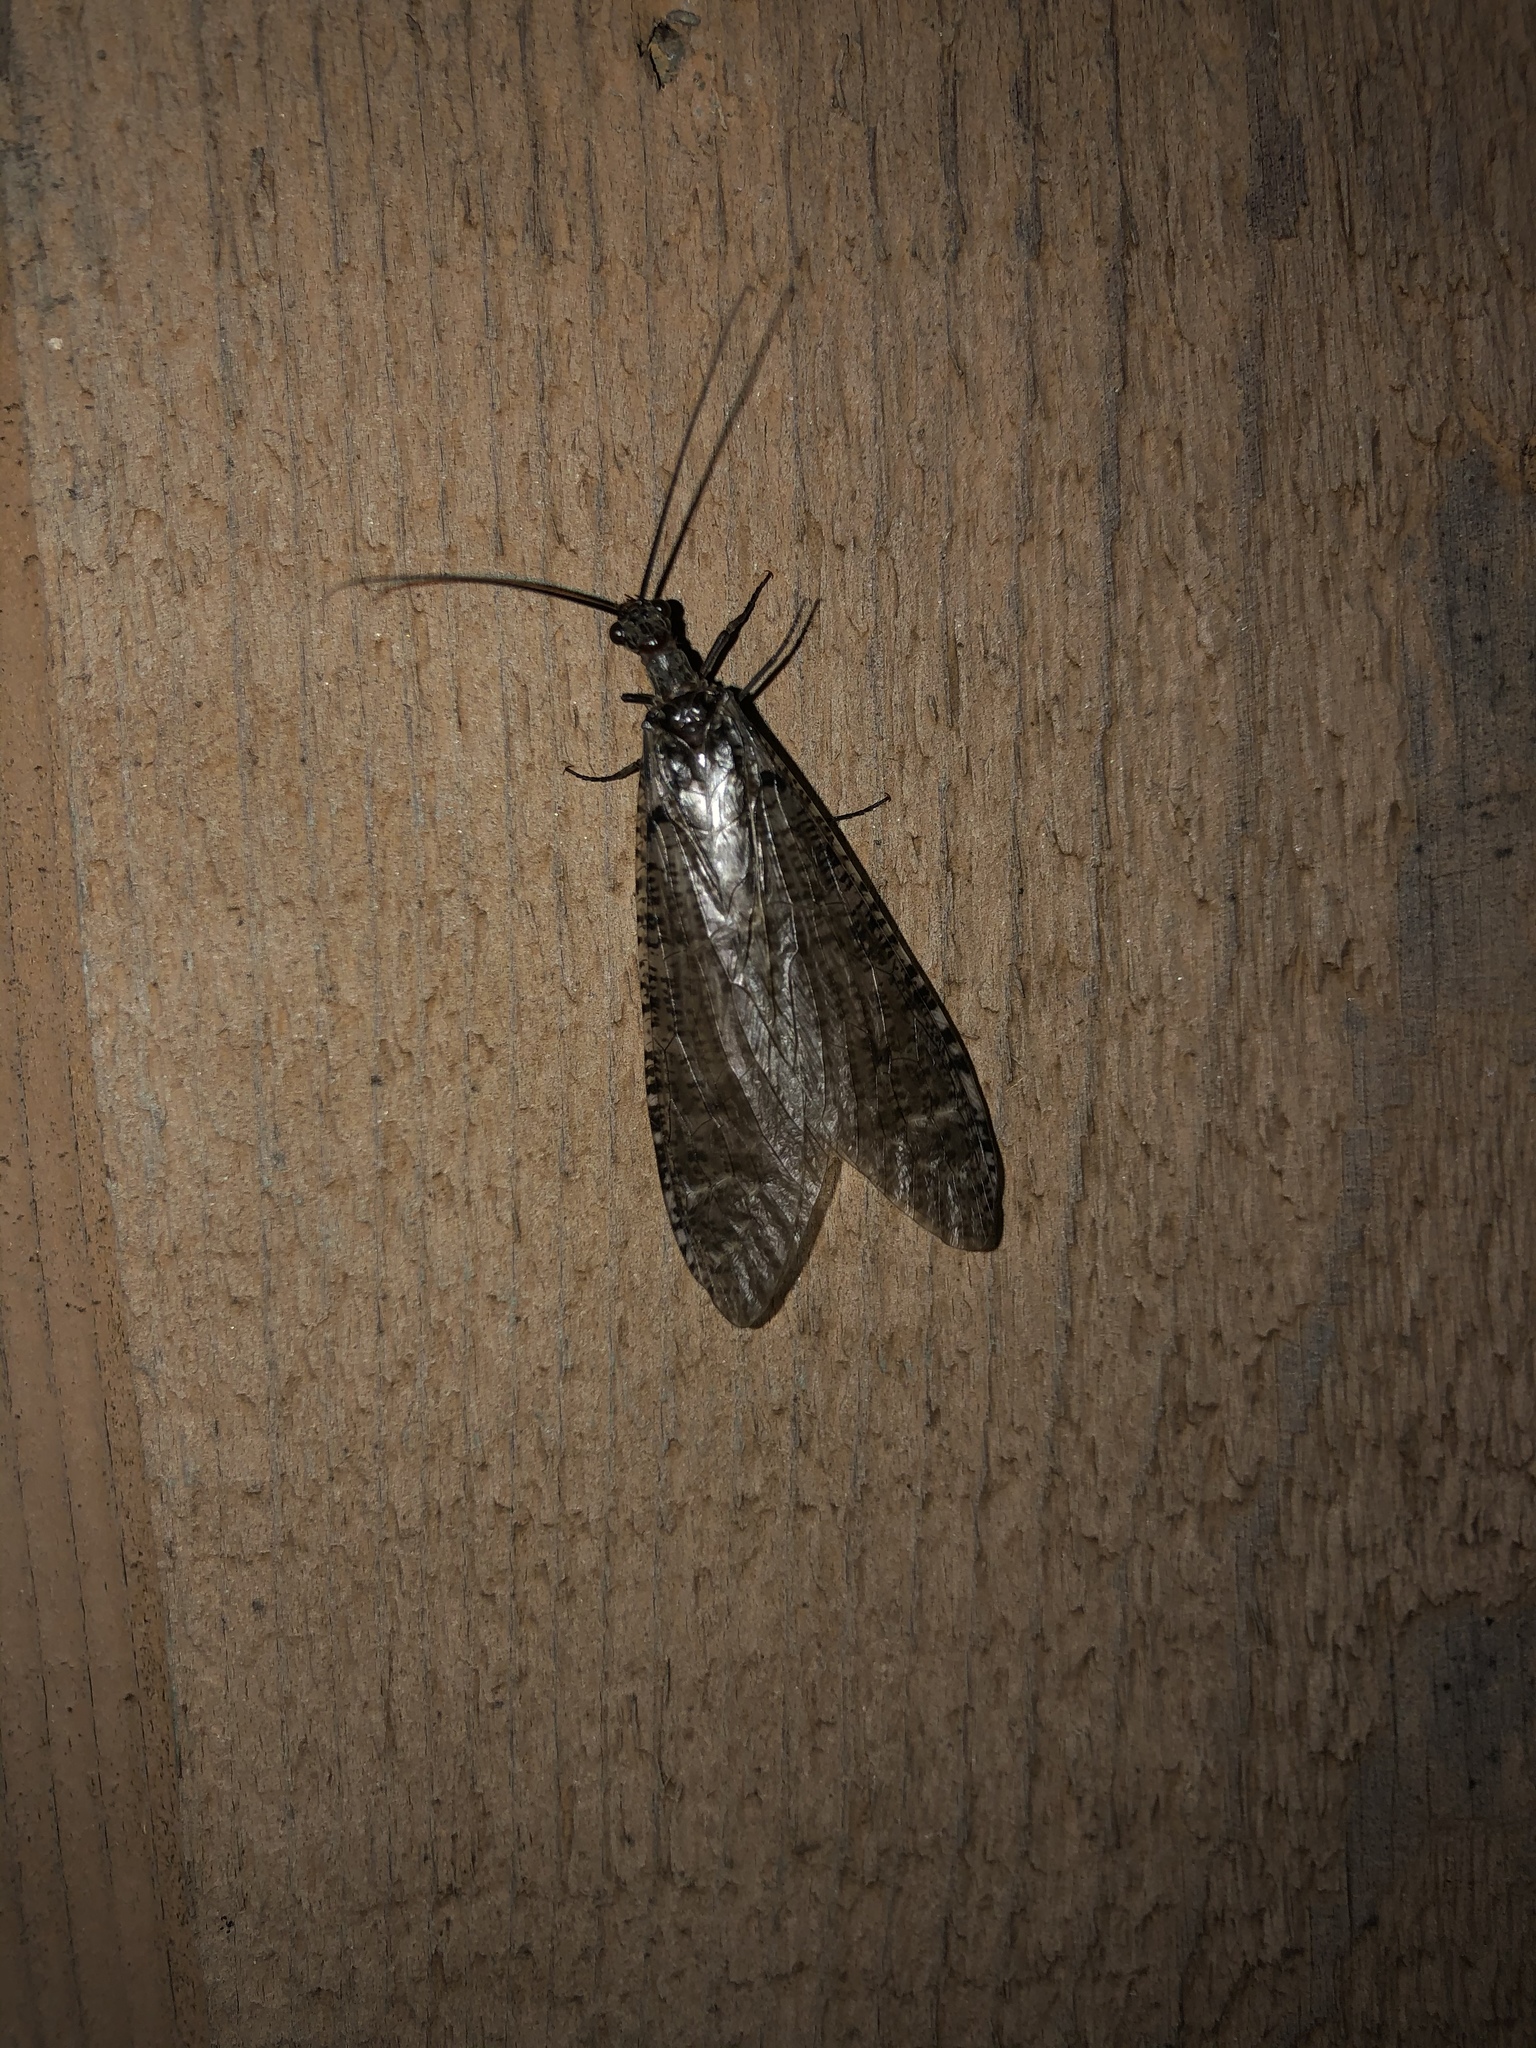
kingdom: Animalia
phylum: Arthropoda
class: Insecta
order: Megaloptera
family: Corydalidae
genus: Protochauliodes
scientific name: Protochauliodes spenceri
